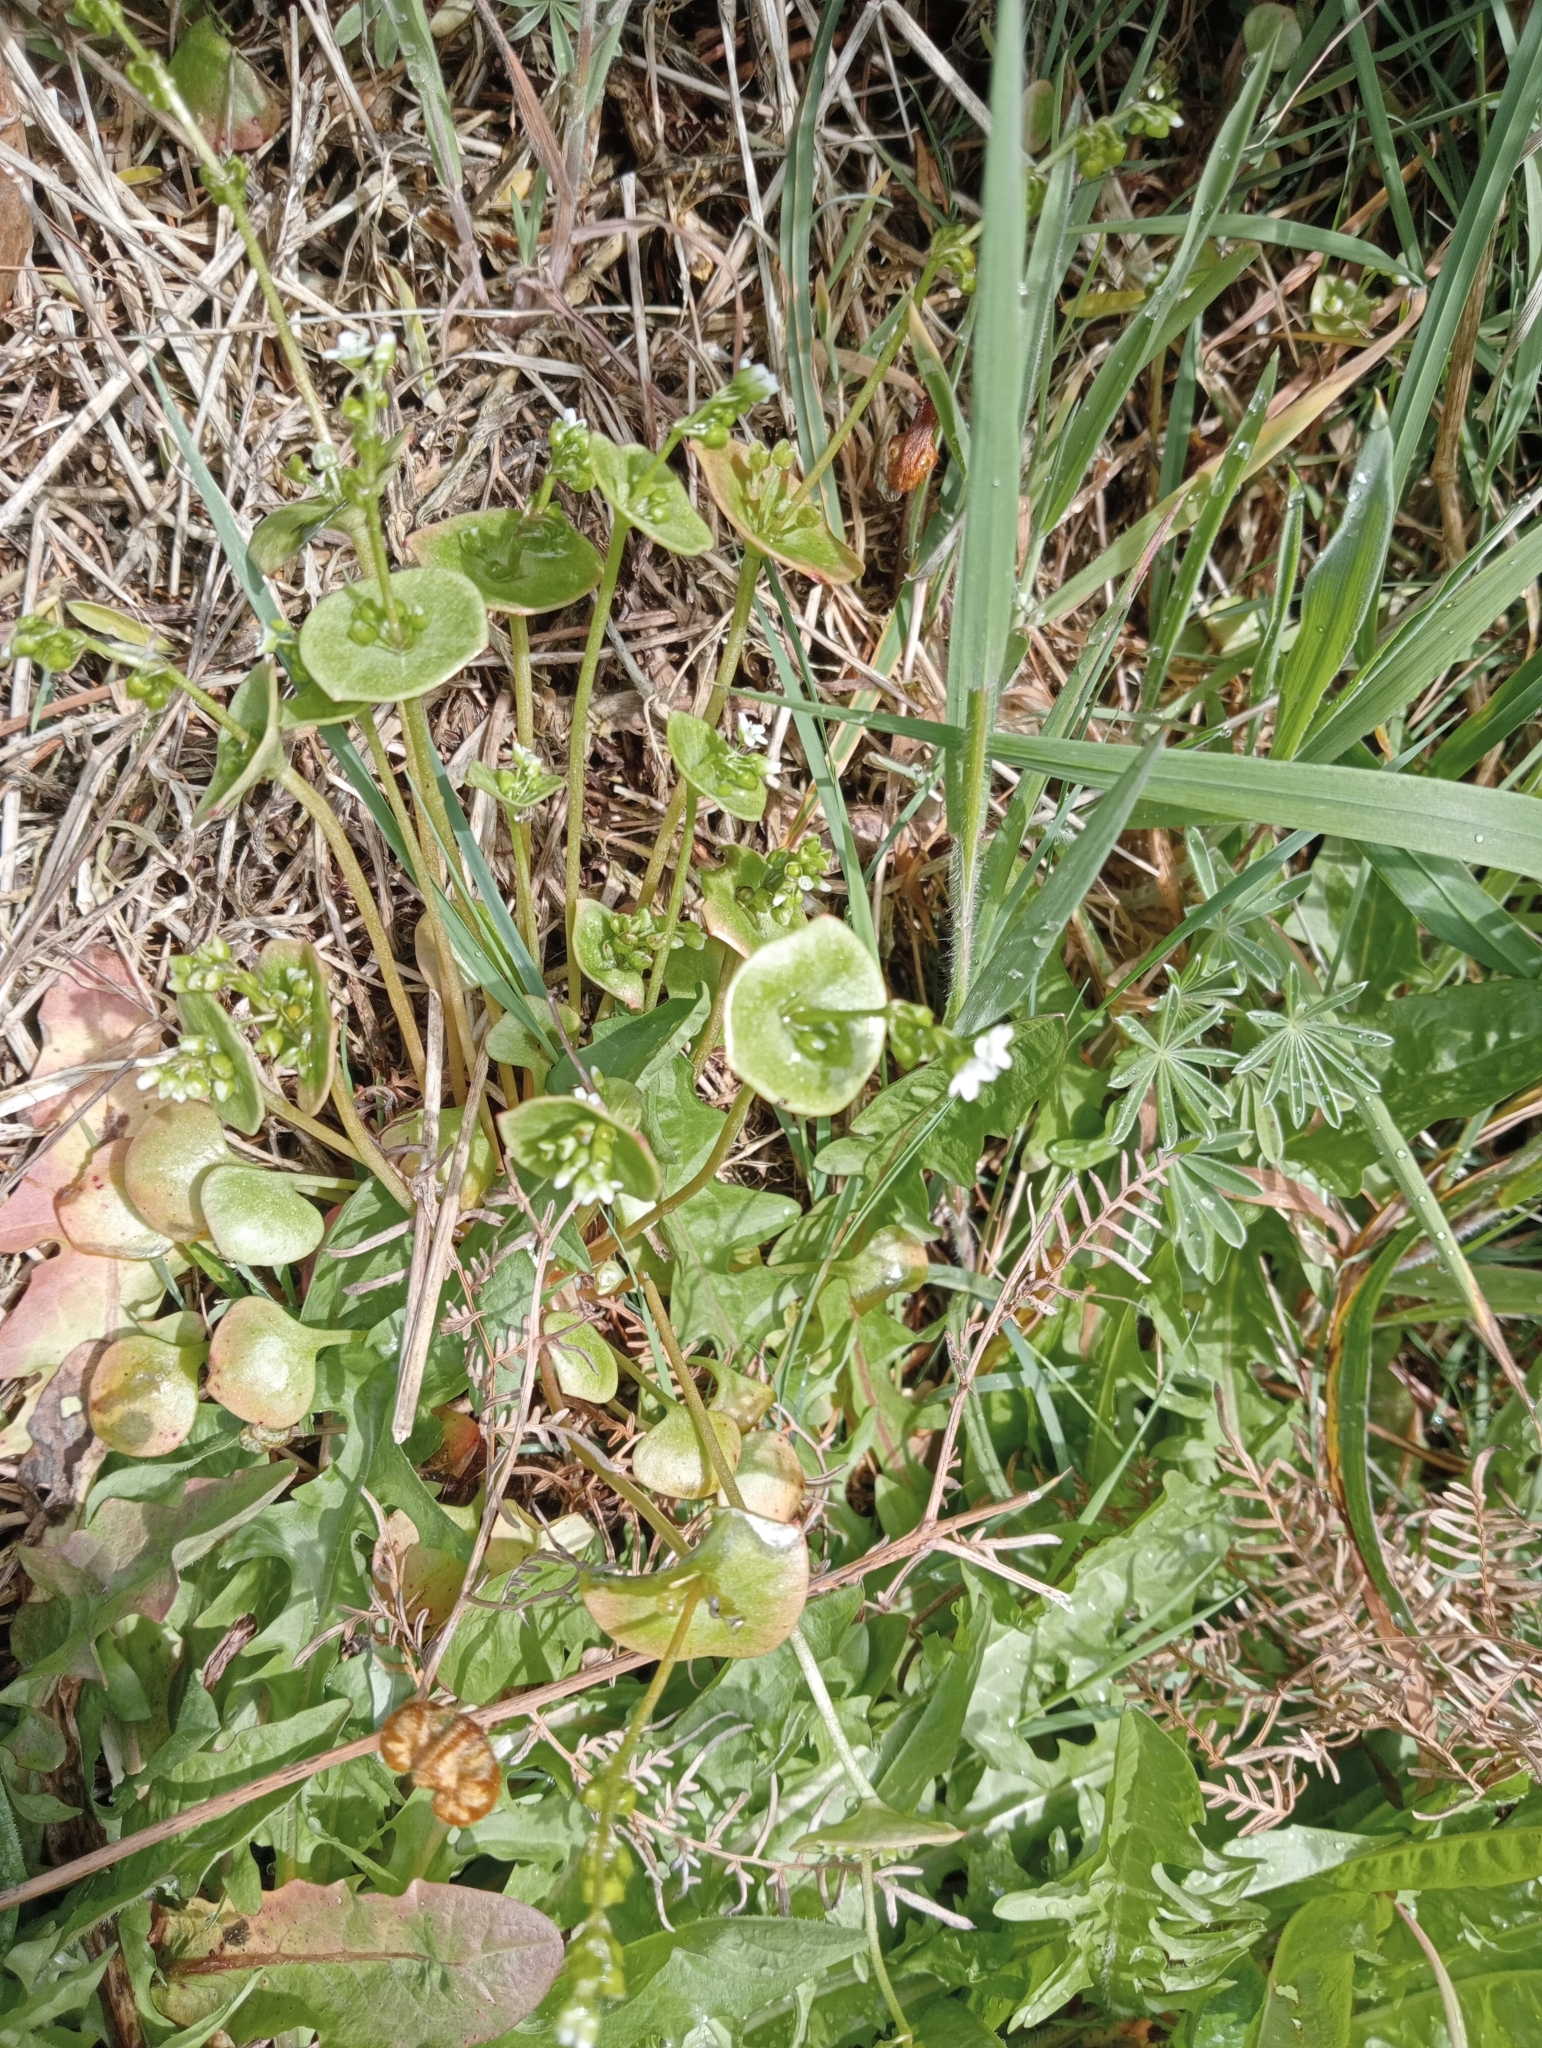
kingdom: Plantae
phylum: Tracheophyta
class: Magnoliopsida
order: Caryophyllales
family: Montiaceae
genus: Claytonia
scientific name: Claytonia perfoliata
